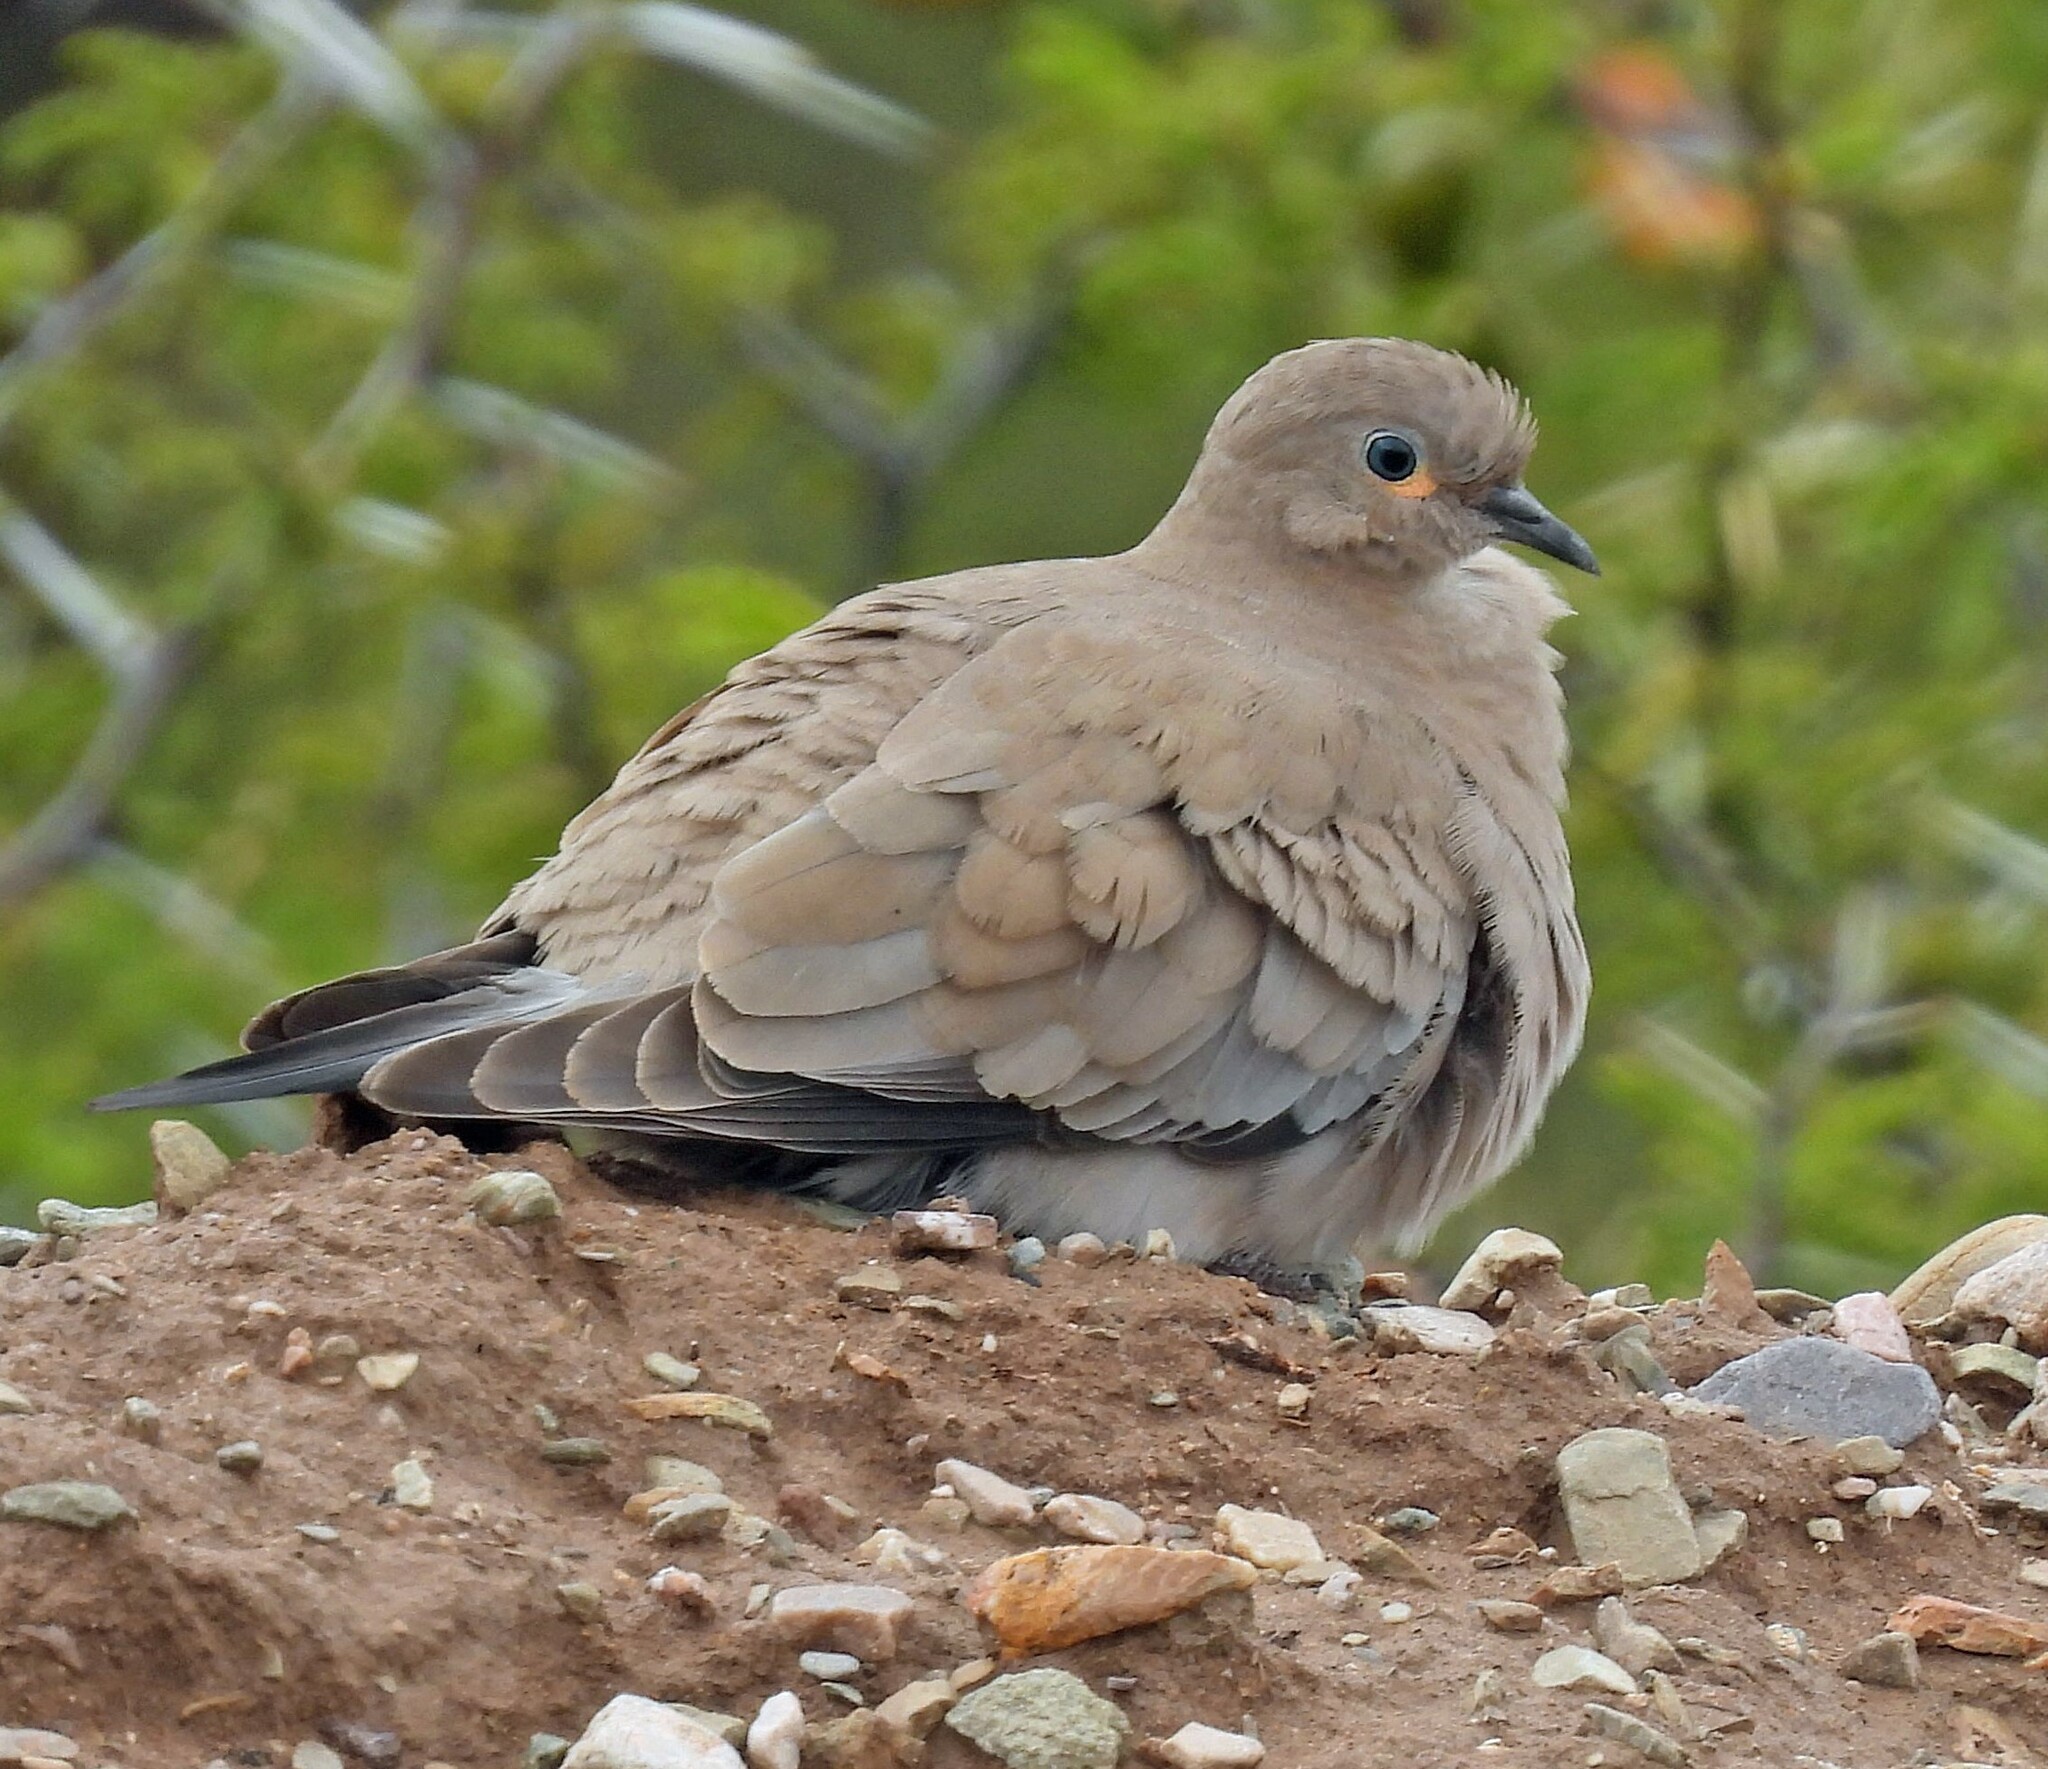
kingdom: Animalia
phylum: Chordata
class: Aves
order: Columbiformes
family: Columbidae
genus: Metriopelia
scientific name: Metriopelia melanoptera
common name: Black-winged ground dove
